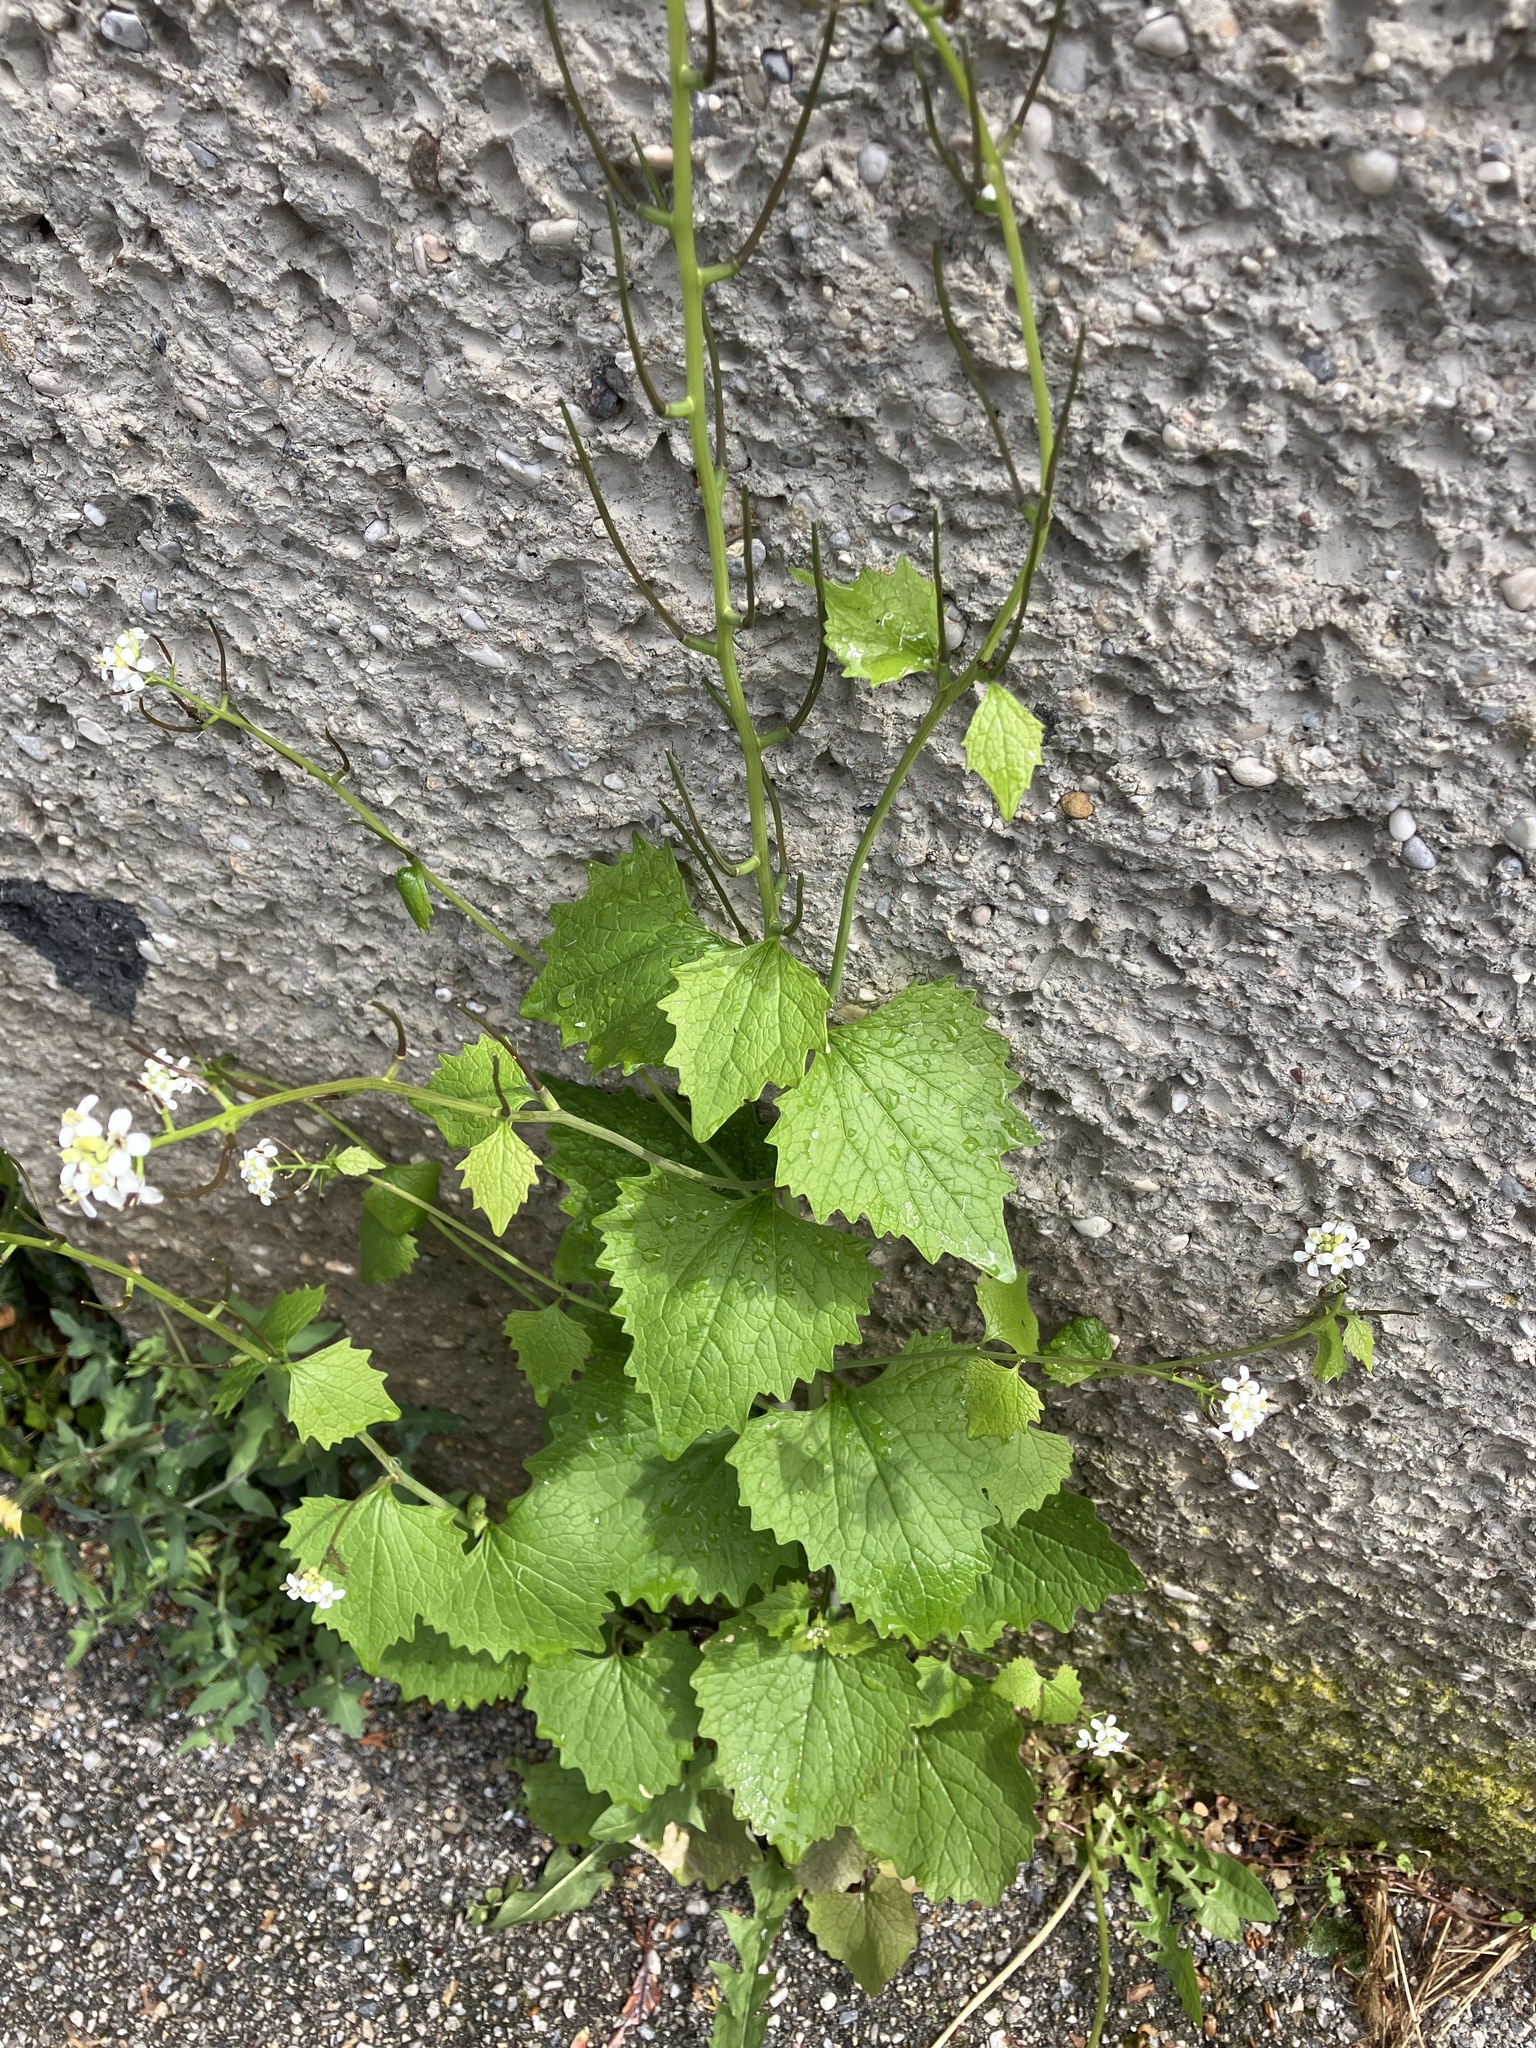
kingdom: Plantae
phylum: Tracheophyta
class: Magnoliopsida
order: Brassicales
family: Brassicaceae
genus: Alliaria
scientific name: Alliaria petiolata
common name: Garlic mustard
